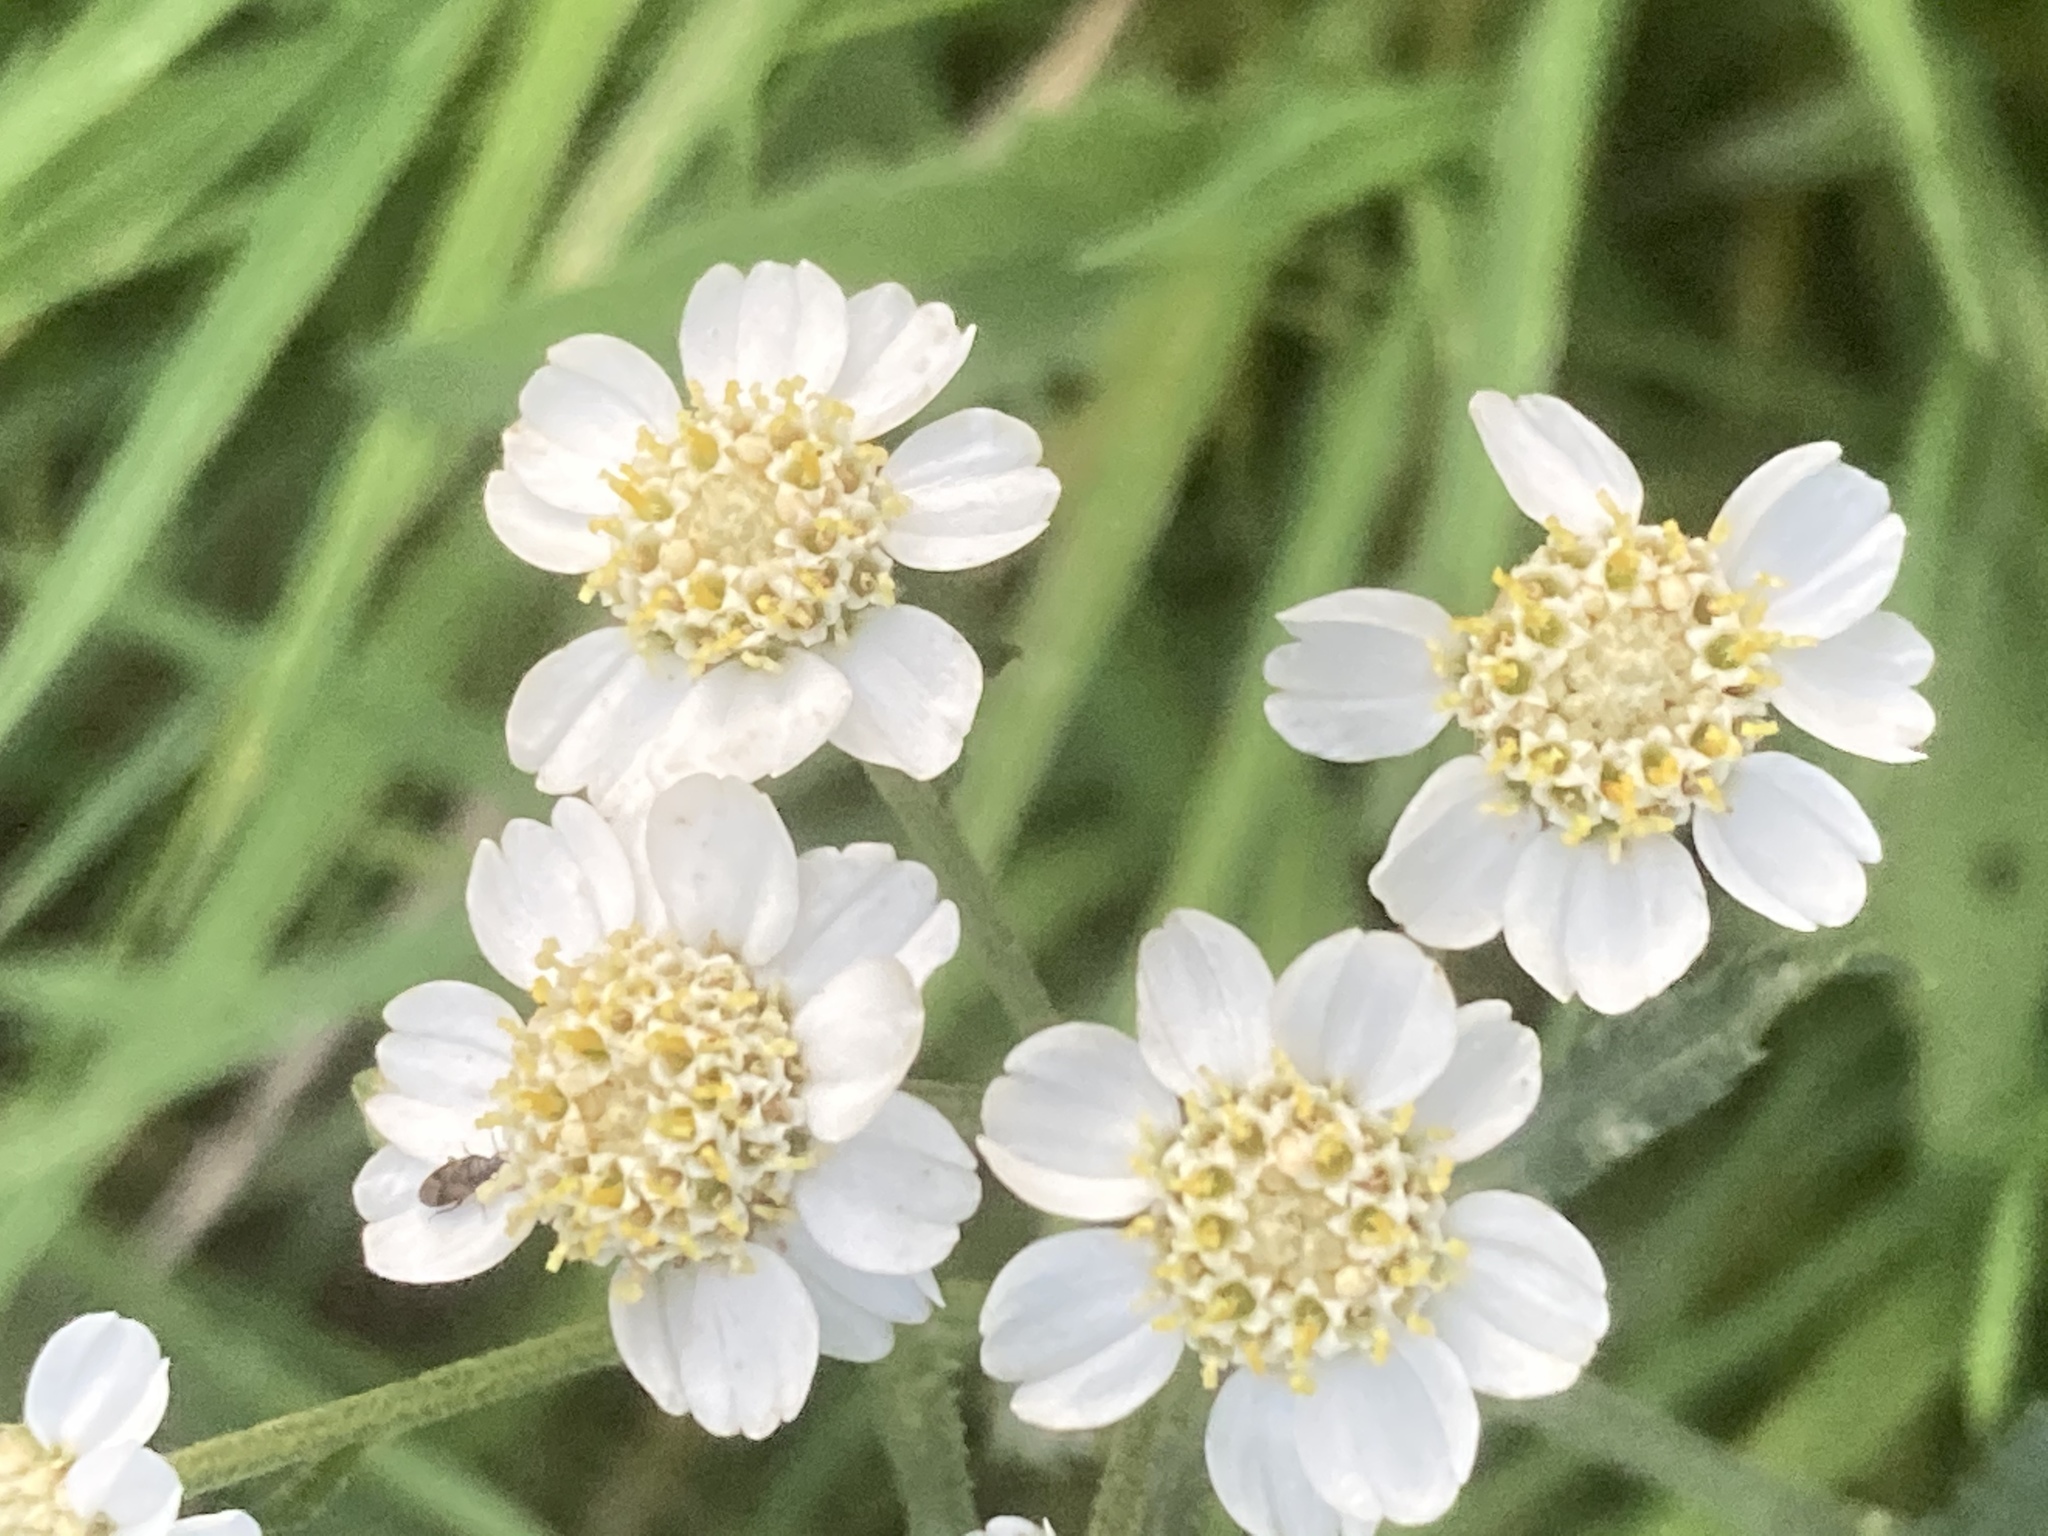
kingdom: Plantae
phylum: Tracheophyta
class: Magnoliopsida
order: Asterales
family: Asteraceae
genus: Achillea
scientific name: Achillea ptarmica
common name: Sneezeweed
